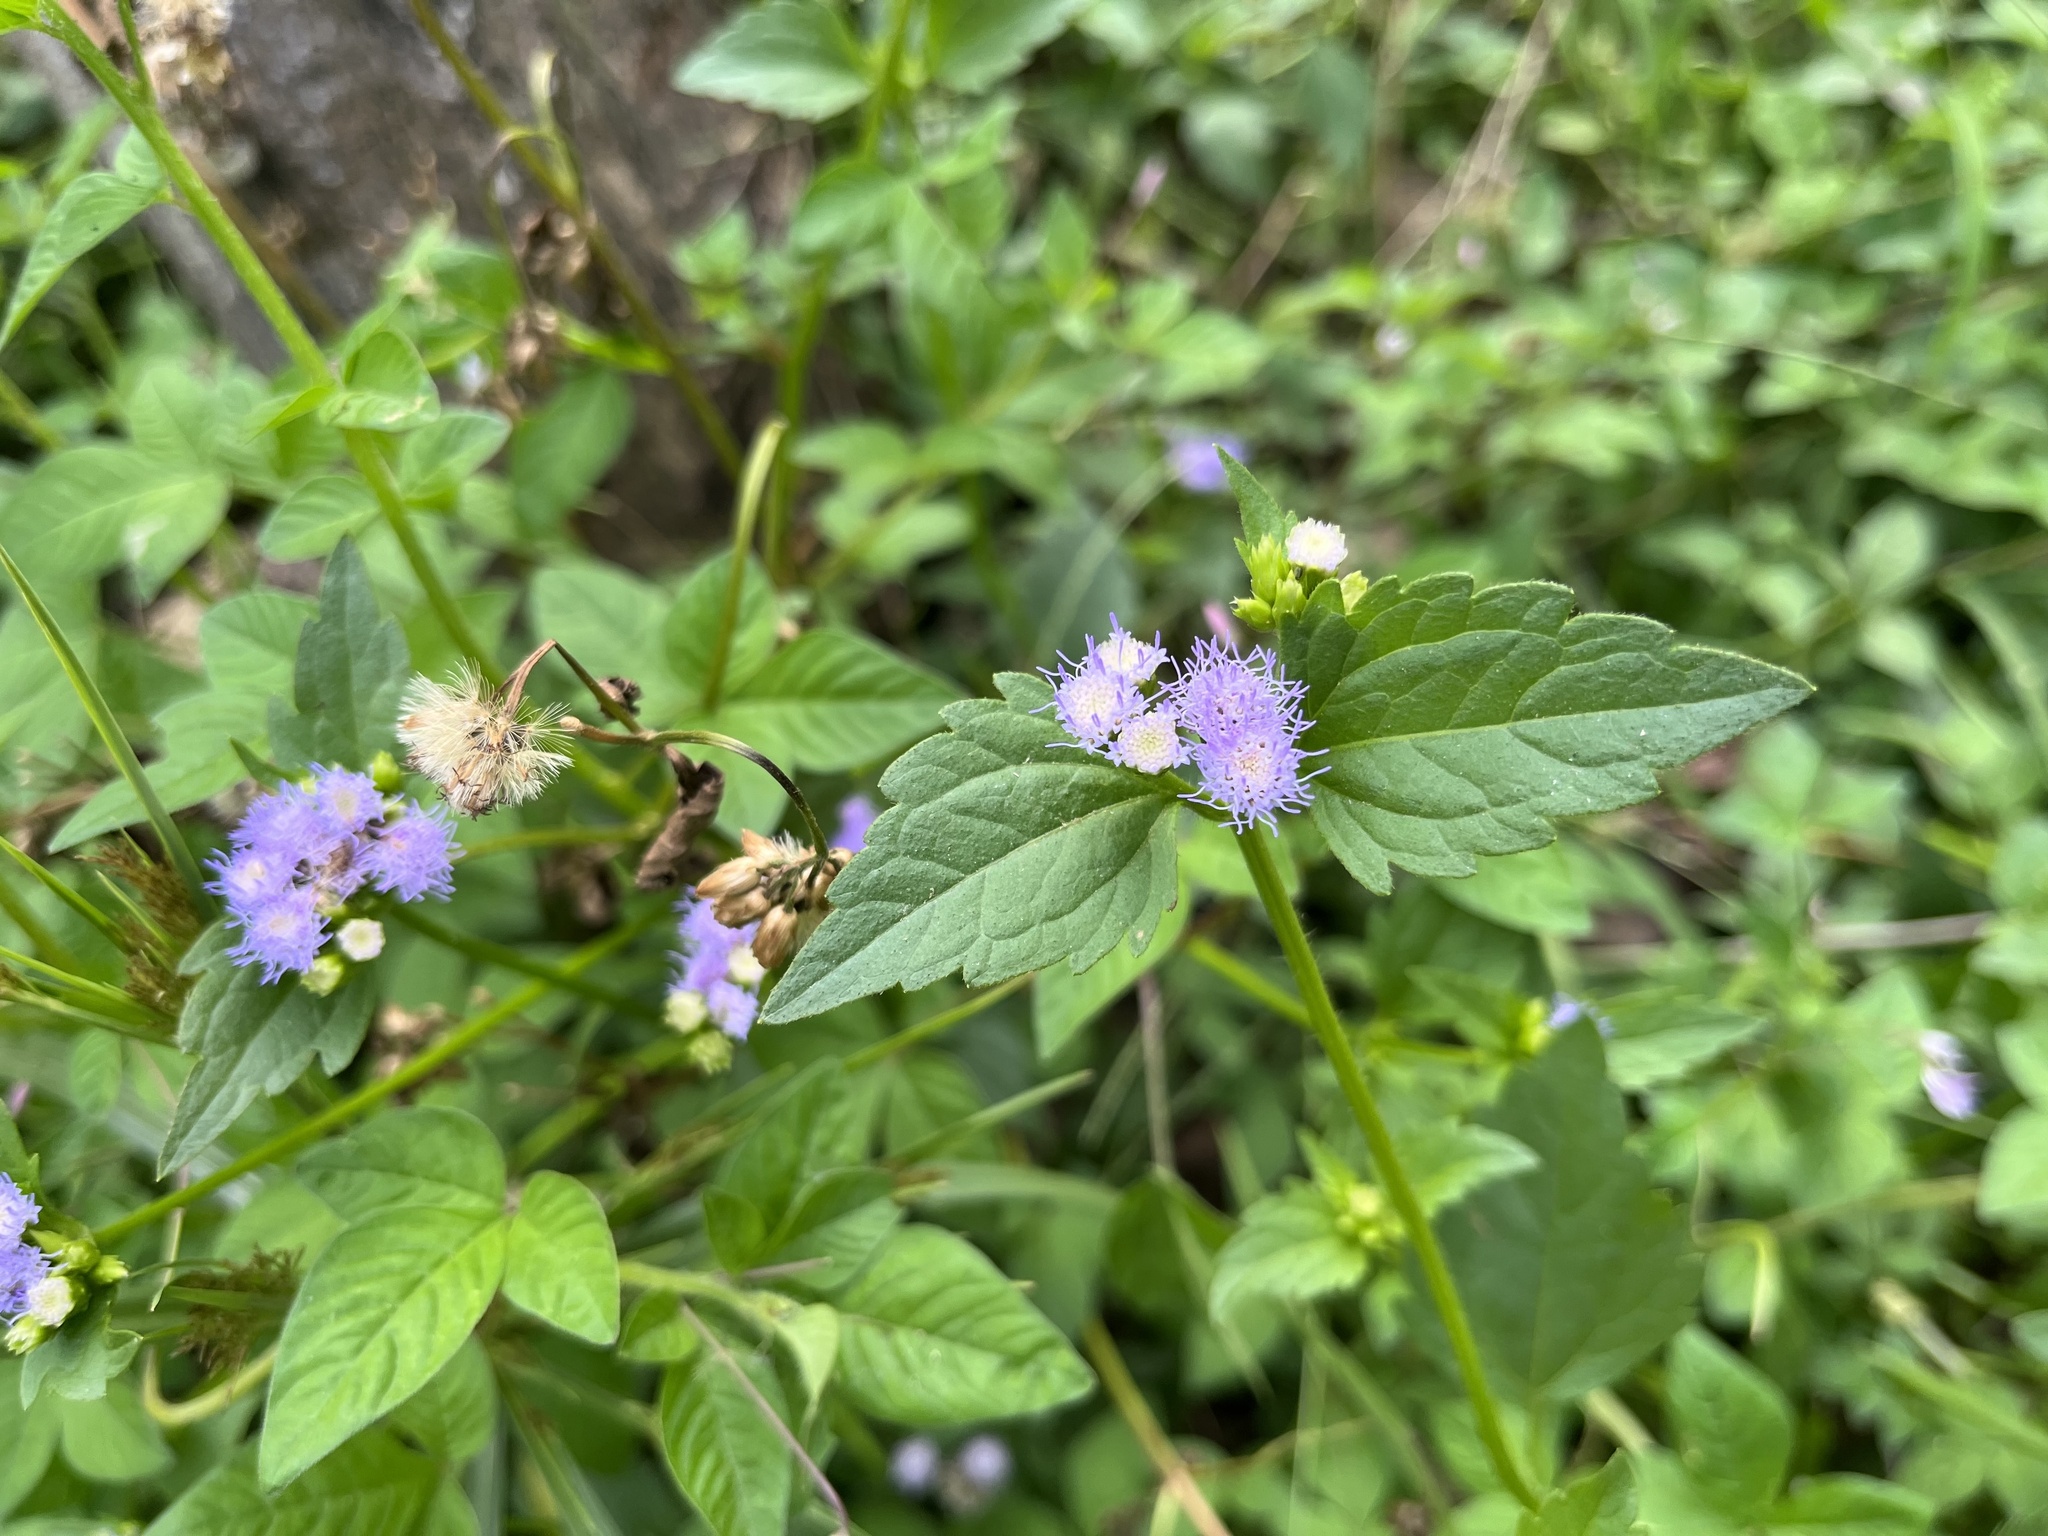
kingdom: Plantae
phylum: Tracheophyta
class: Magnoliopsida
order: Asterales
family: Asteraceae
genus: Praxelis
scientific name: Praxelis clematidea
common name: Praxelis
